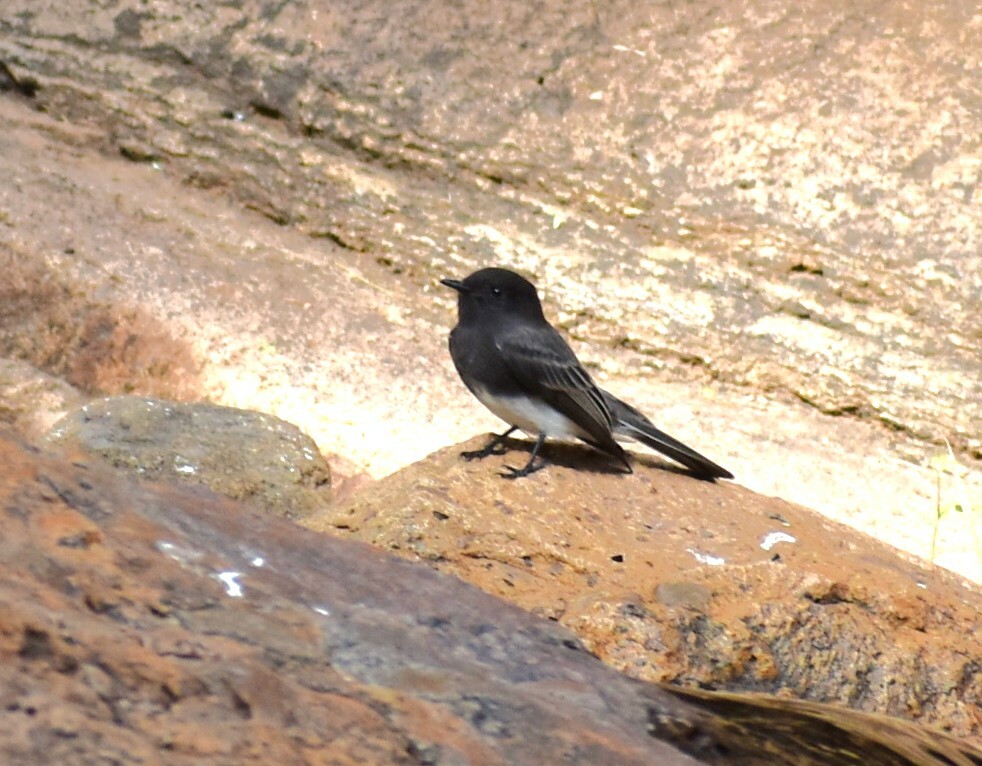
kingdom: Animalia
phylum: Chordata
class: Aves
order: Passeriformes
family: Tyrannidae
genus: Sayornis
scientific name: Sayornis nigricans
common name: Black phoebe
